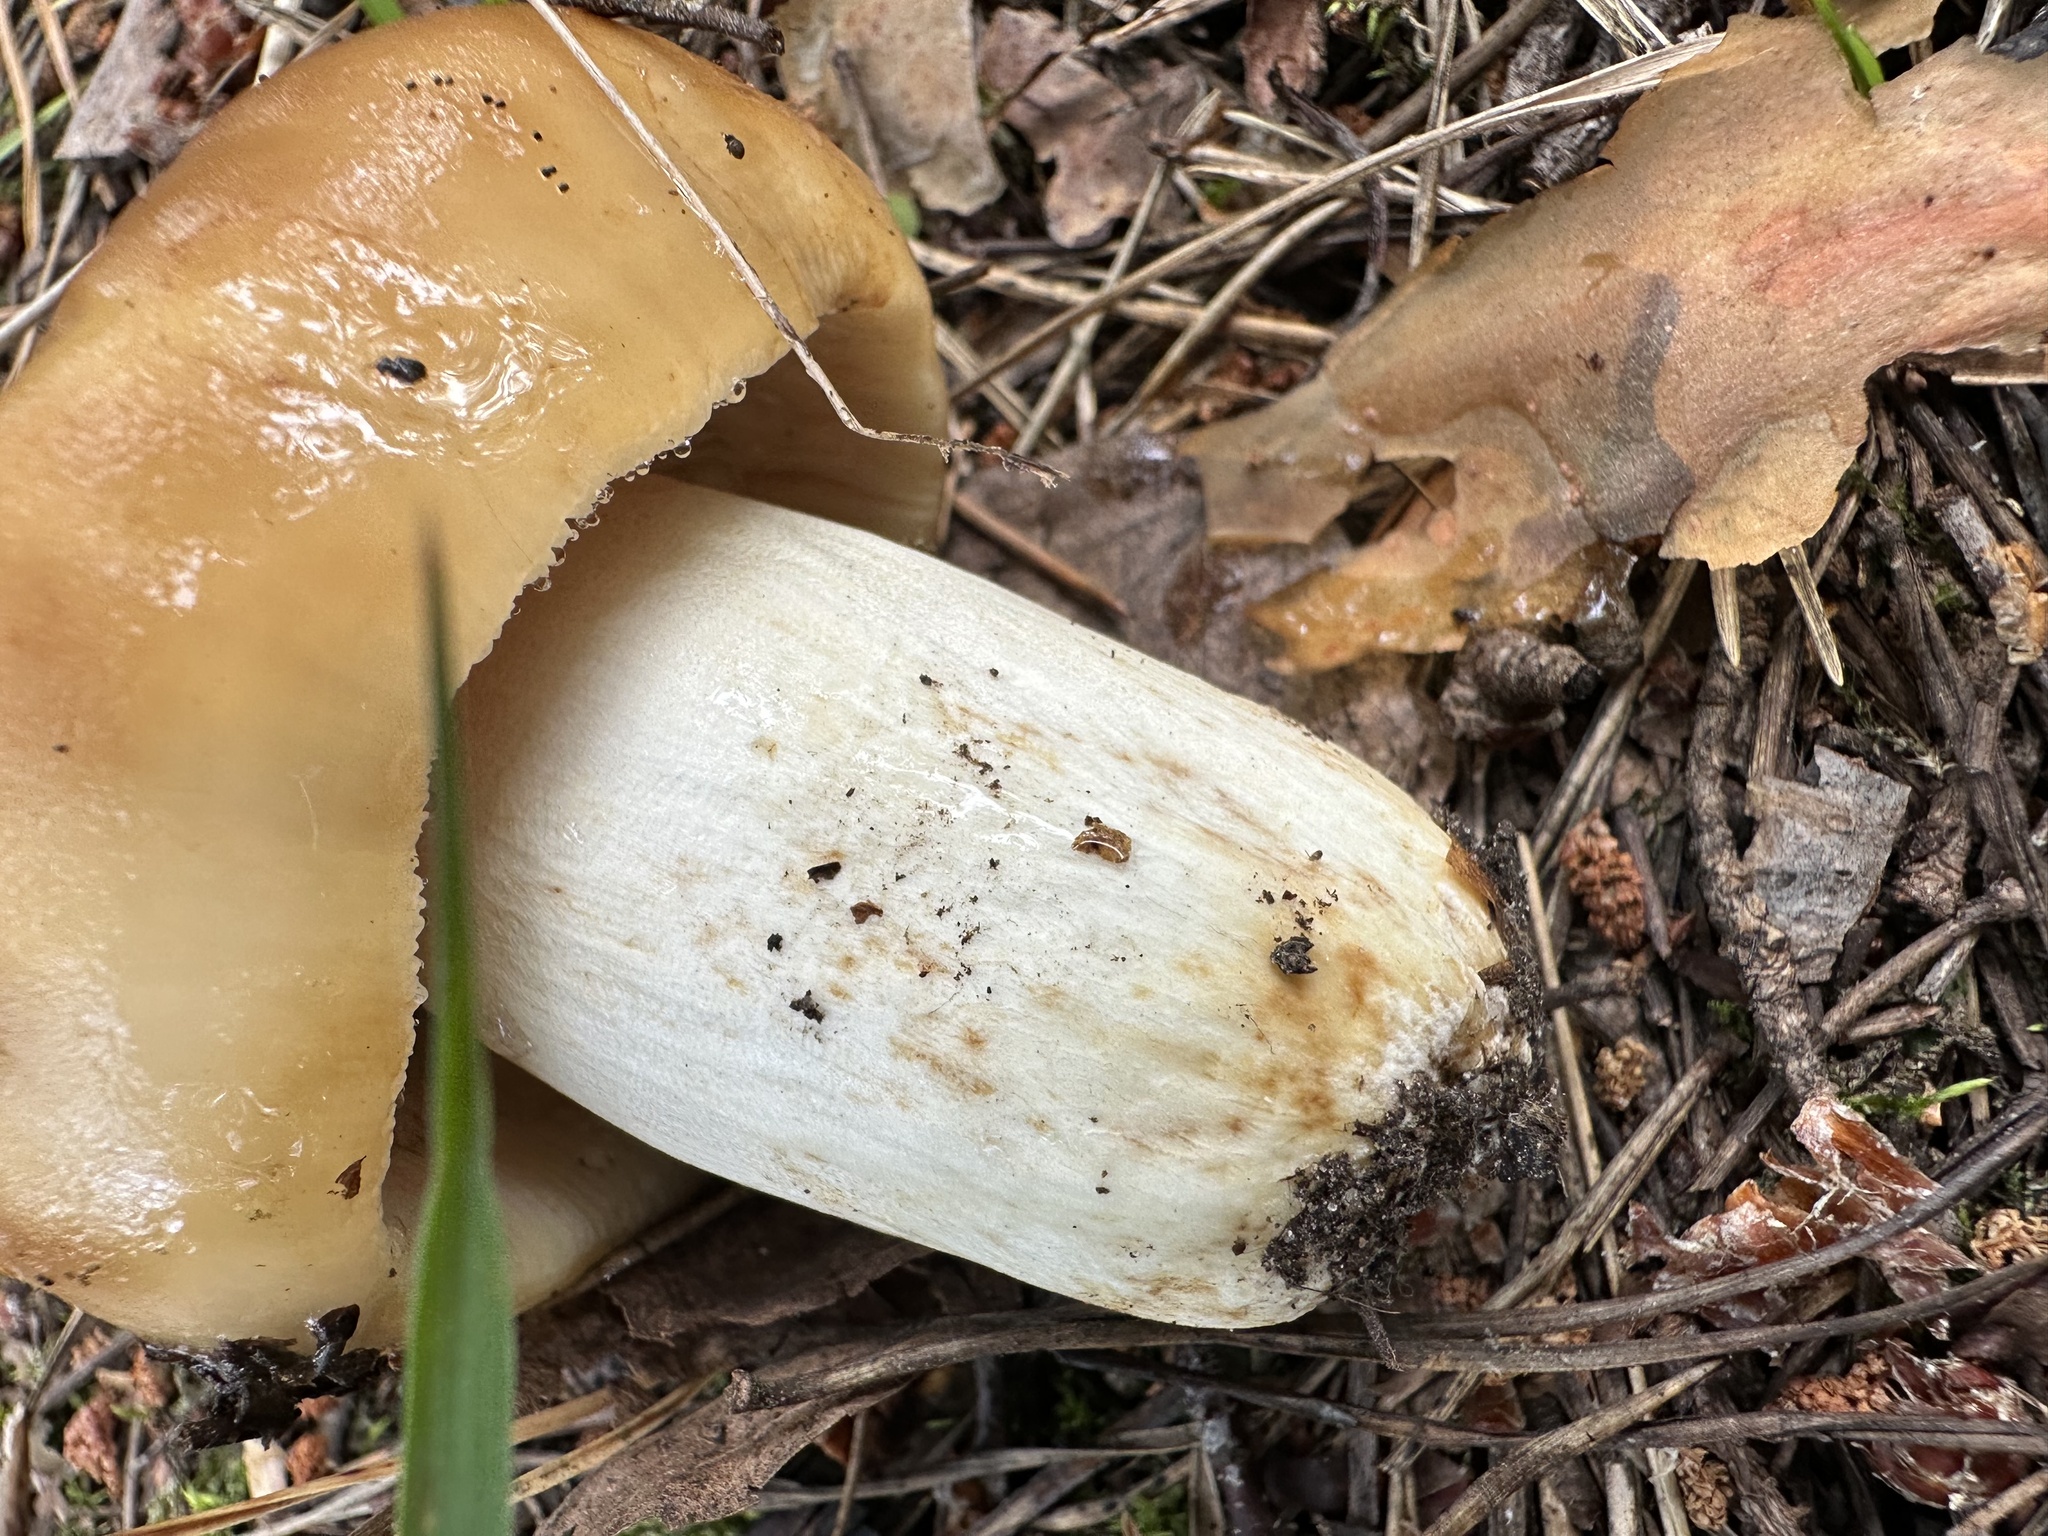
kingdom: Fungi
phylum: Basidiomycota
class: Agaricomycetes
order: Russulales
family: Russulaceae
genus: Russula
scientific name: Russula foetens
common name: Foetid russula
